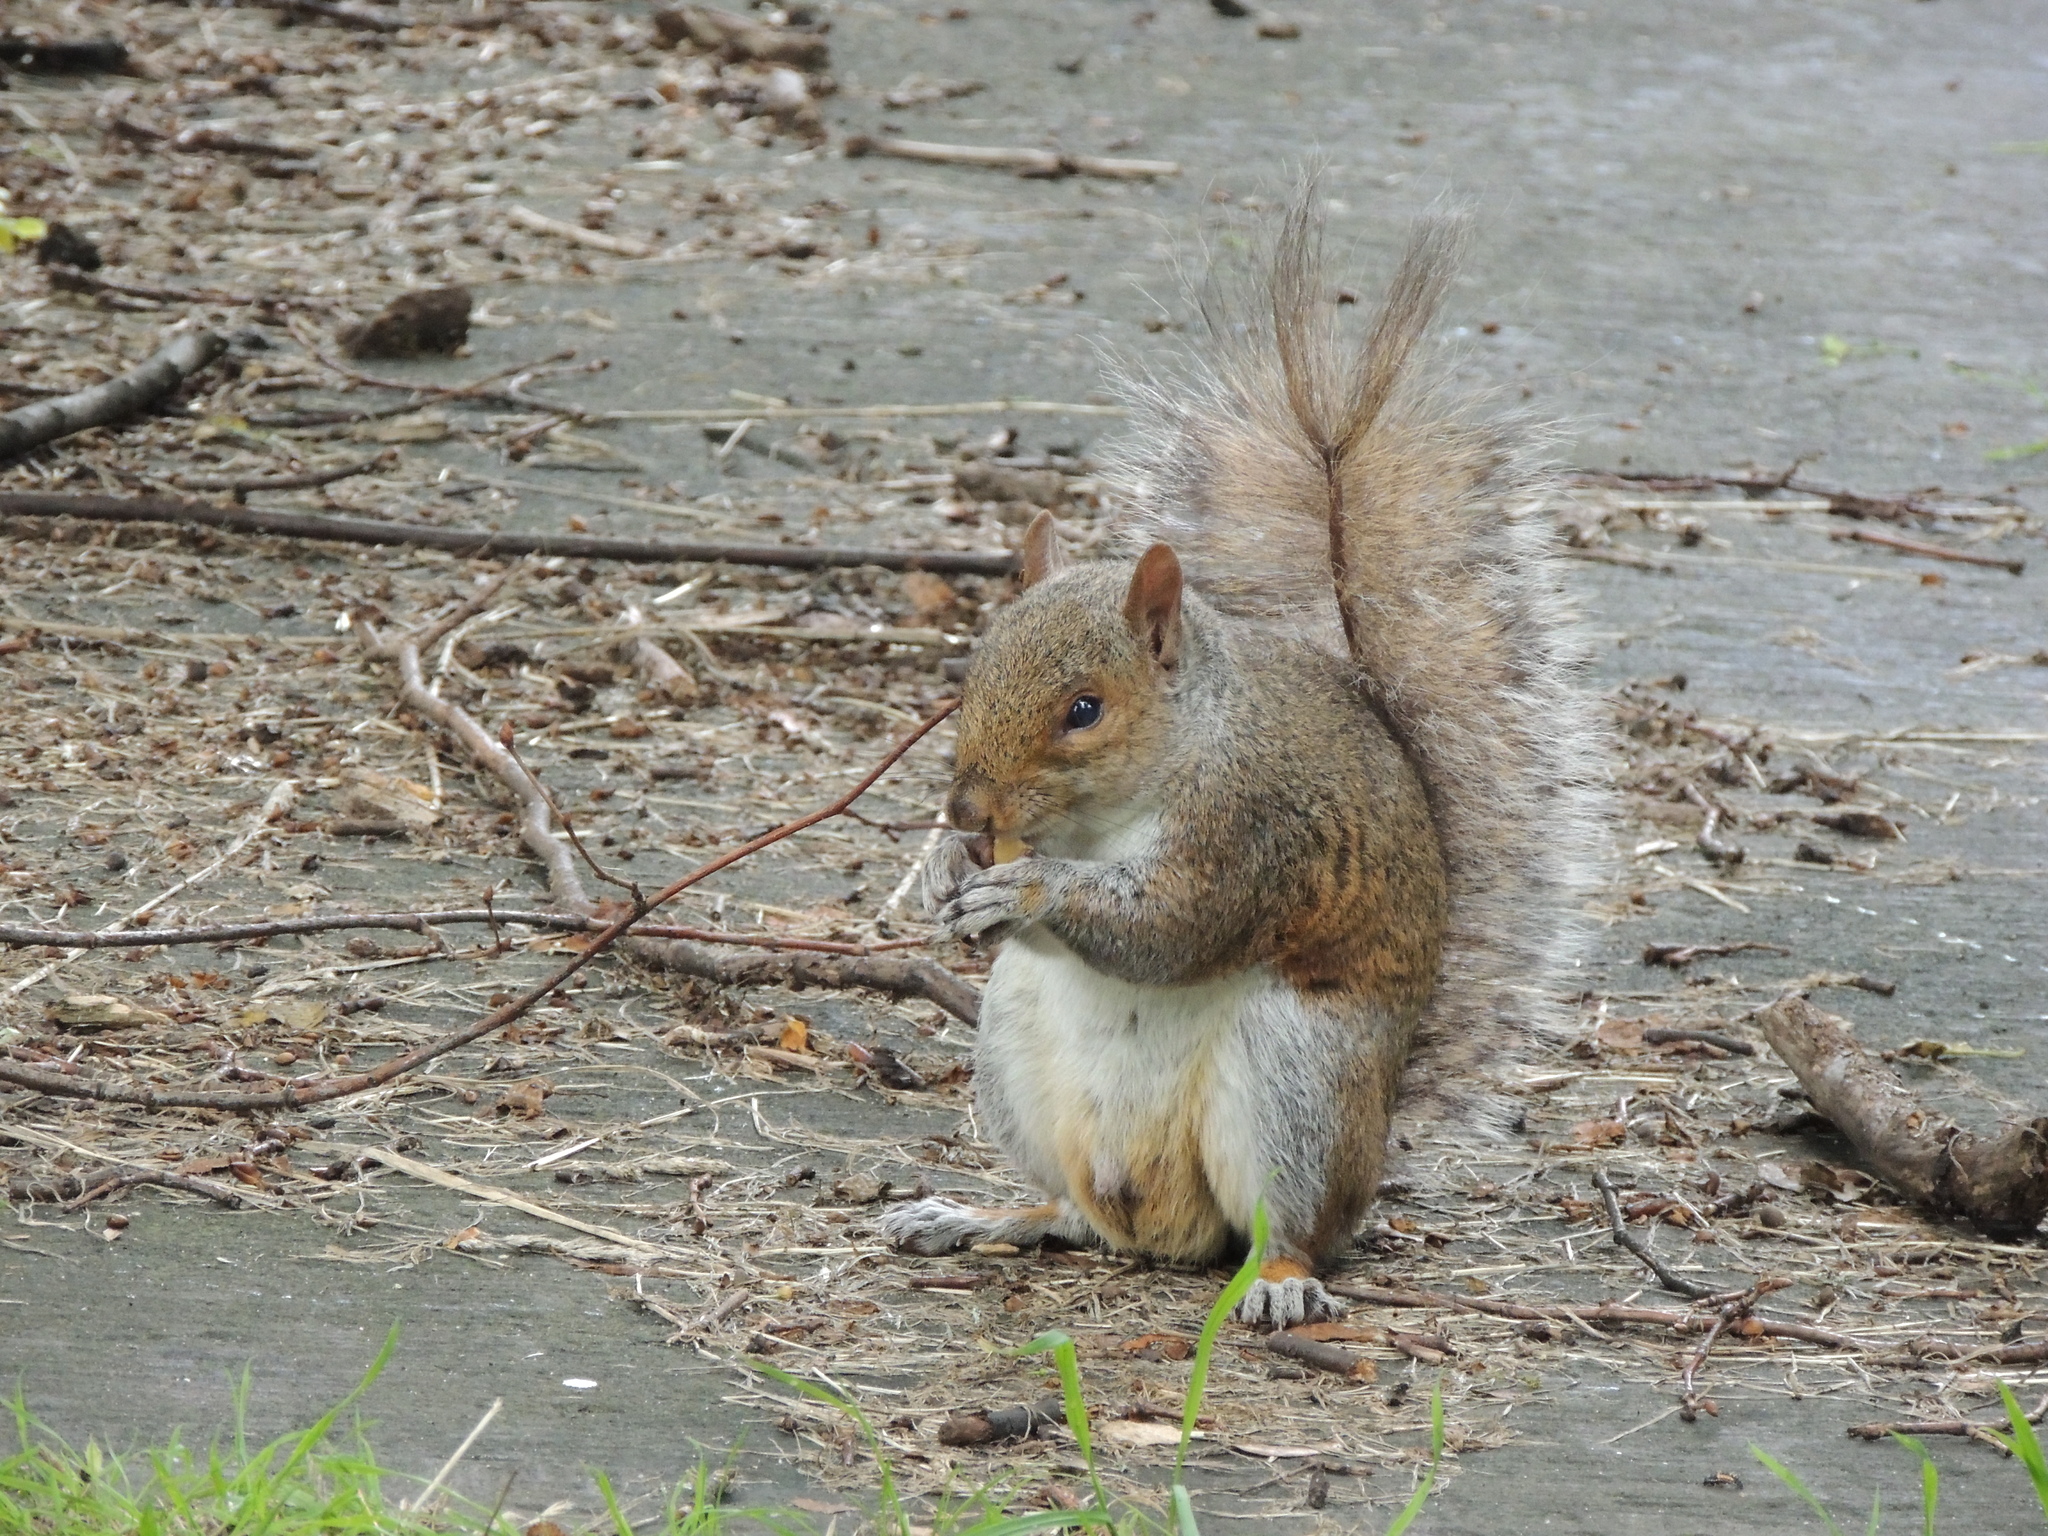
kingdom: Animalia
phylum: Chordata
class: Mammalia
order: Rodentia
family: Sciuridae
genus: Sciurus
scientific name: Sciurus carolinensis
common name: Eastern gray squirrel
